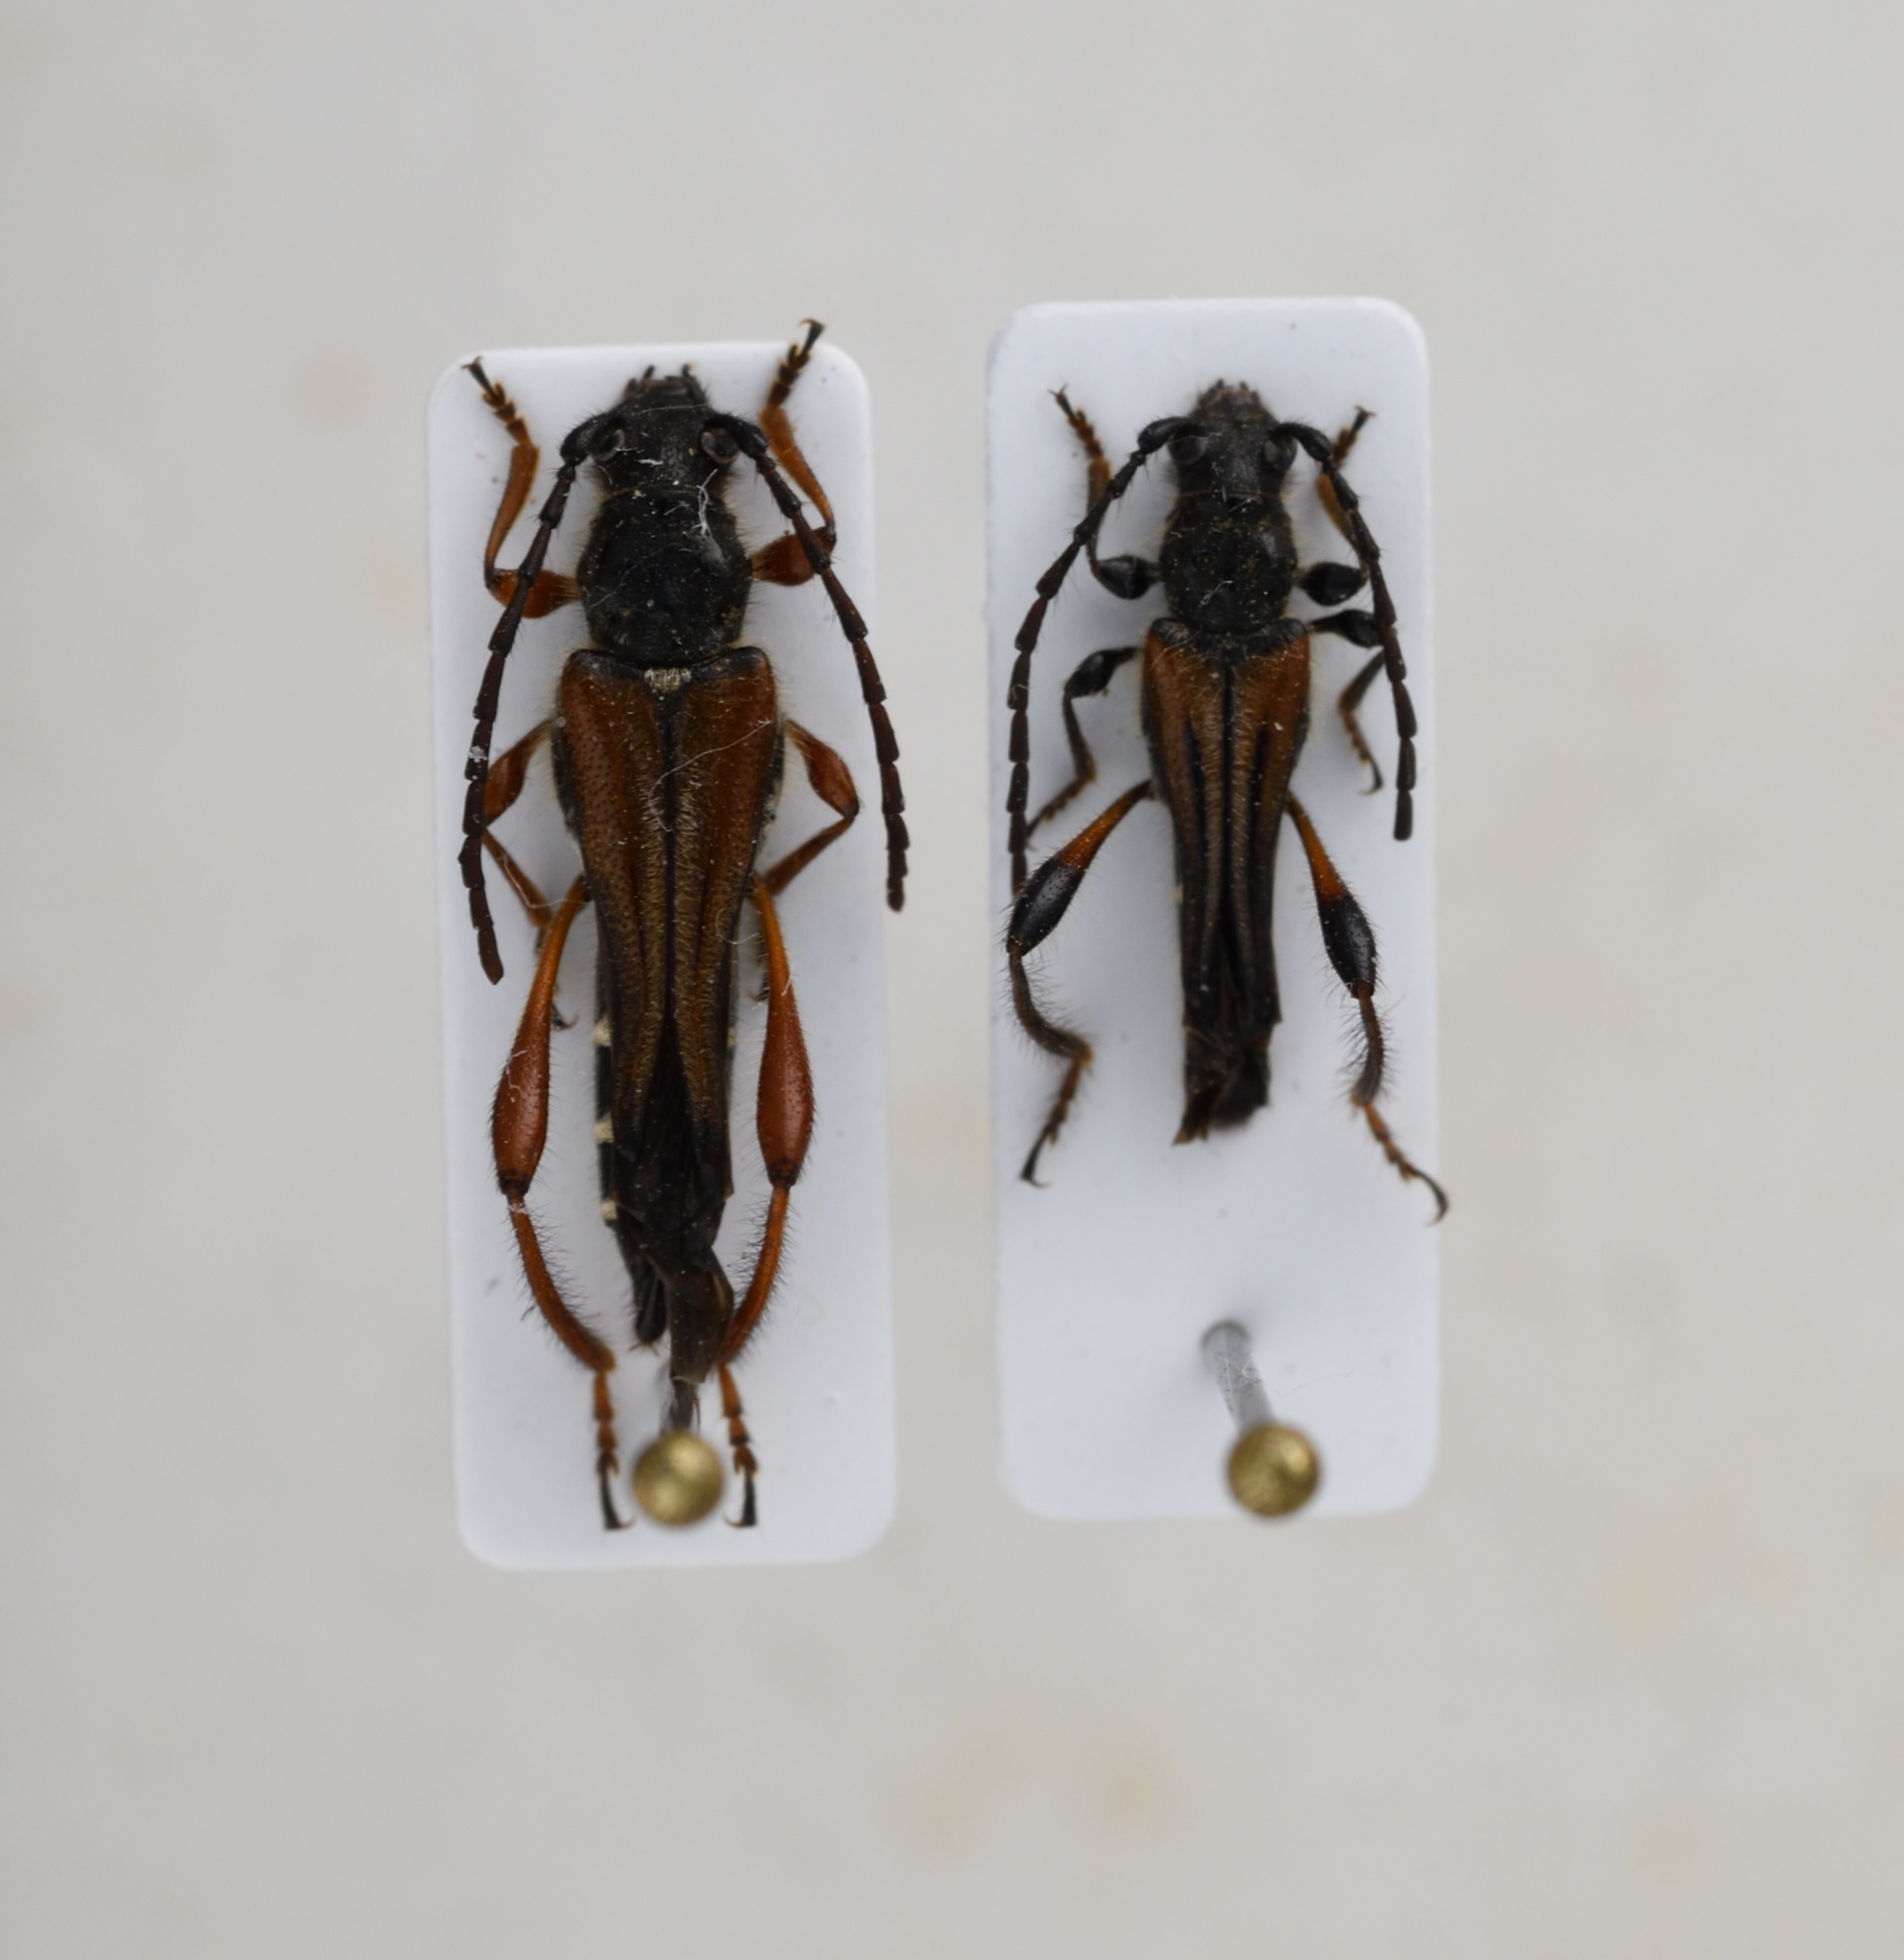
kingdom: Animalia
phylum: Arthropoda
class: Insecta
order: Coleoptera
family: Cerambycidae
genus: Stenopterus
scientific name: Stenopterus creticus
